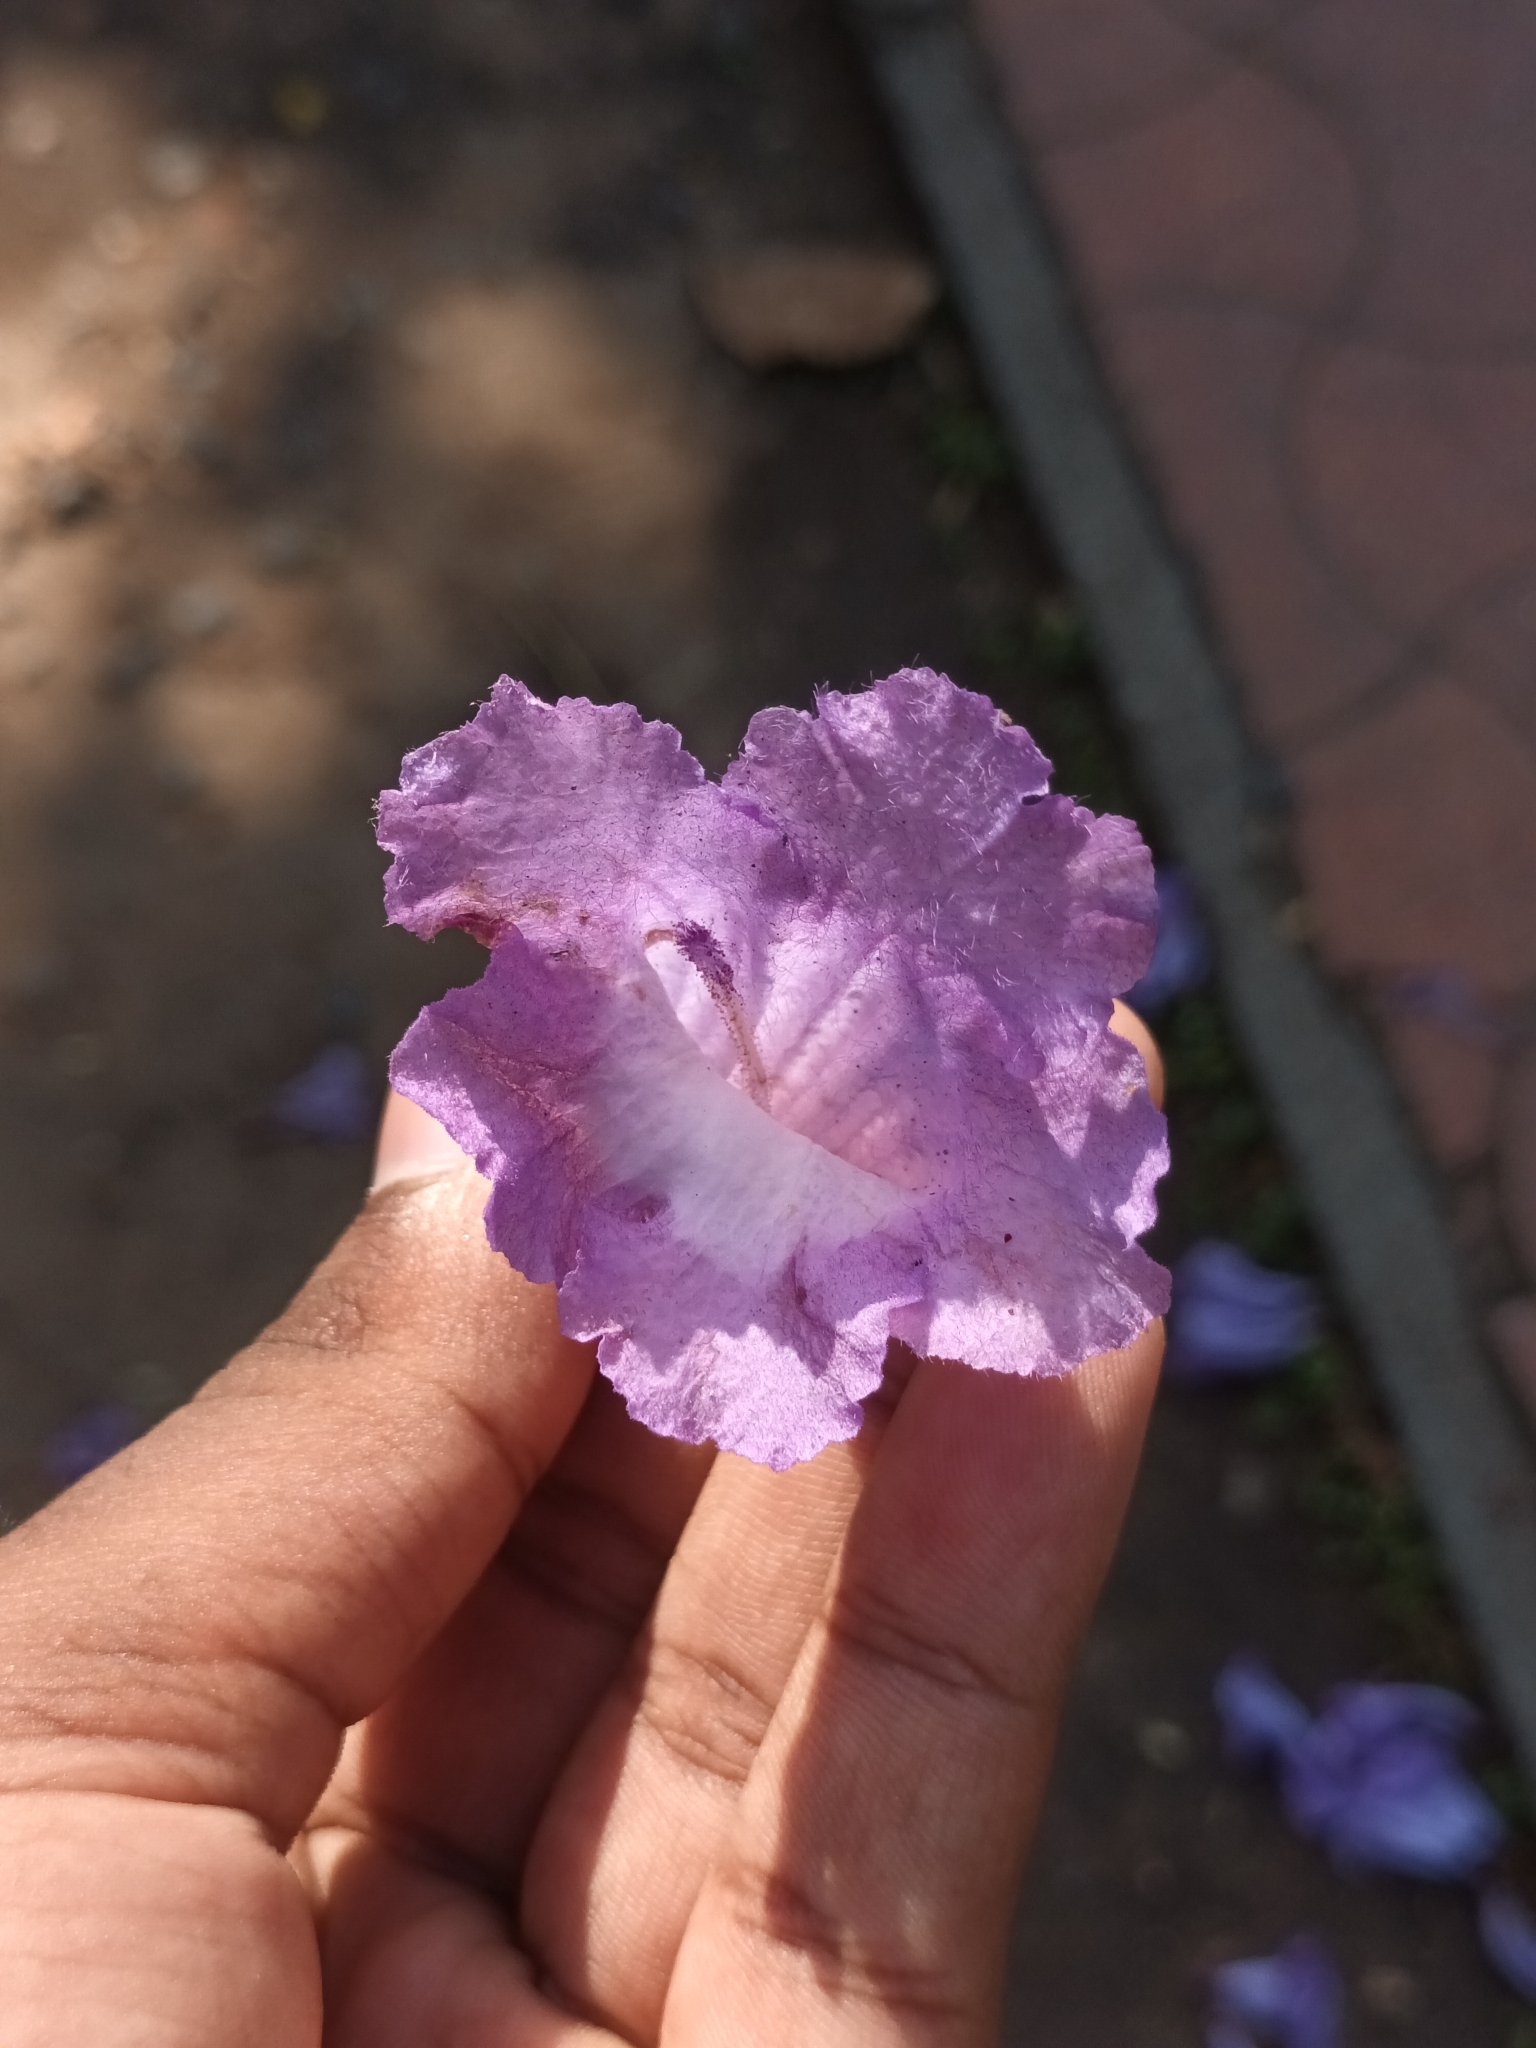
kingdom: Plantae
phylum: Tracheophyta
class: Magnoliopsida
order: Lamiales
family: Bignoniaceae
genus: Jacaranda
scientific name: Jacaranda mimosifolia
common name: Black poui
